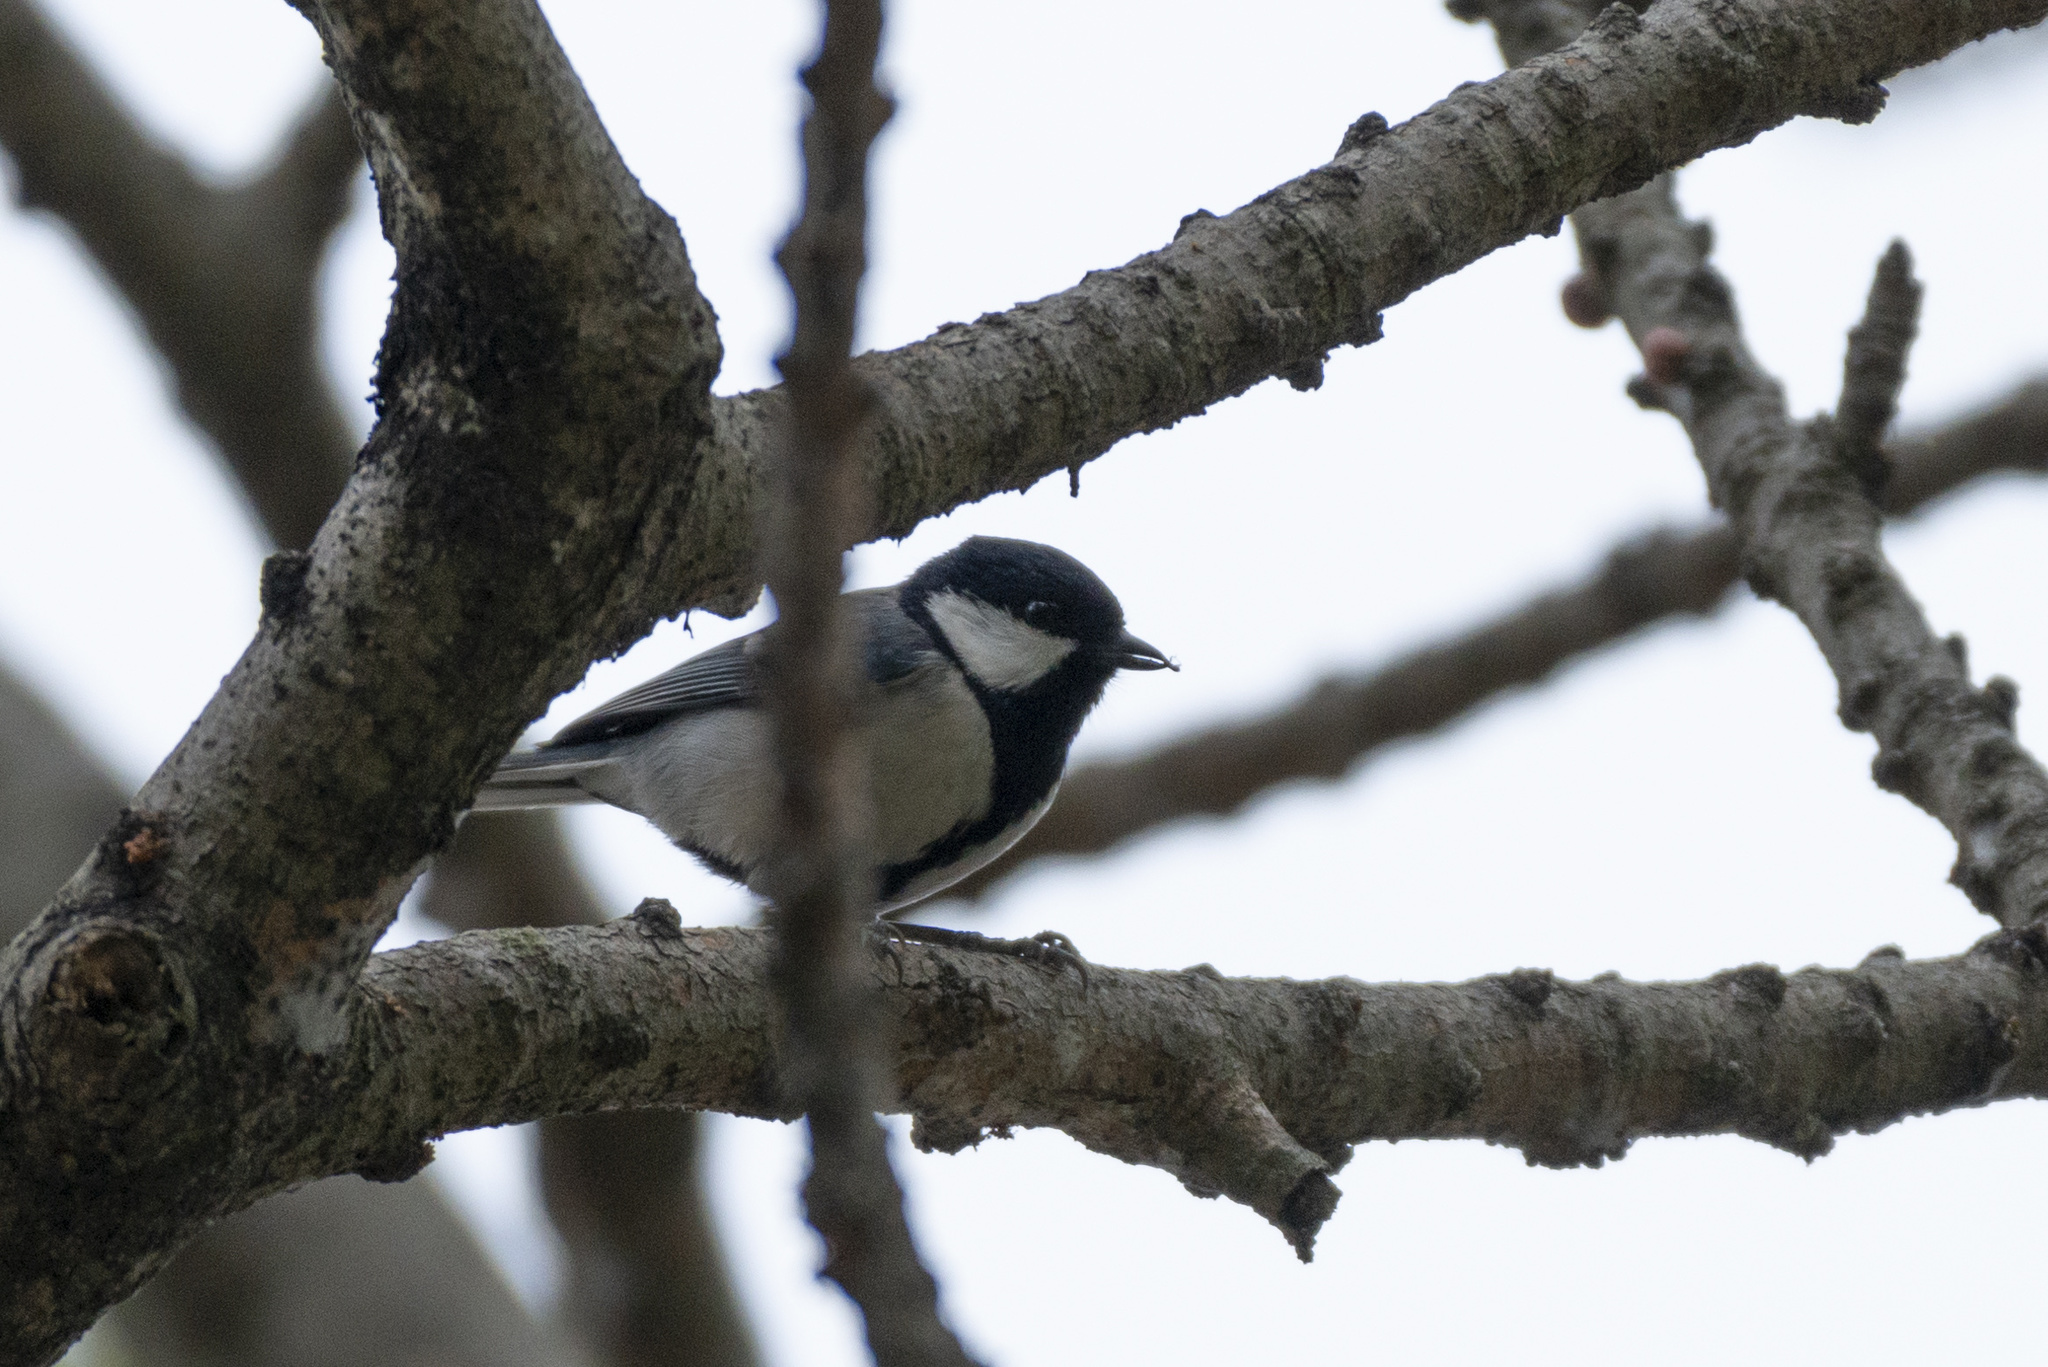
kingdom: Animalia
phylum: Chordata
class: Aves
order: Passeriformes
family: Paridae
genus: Parus
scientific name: Parus minor
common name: Japanese tit
